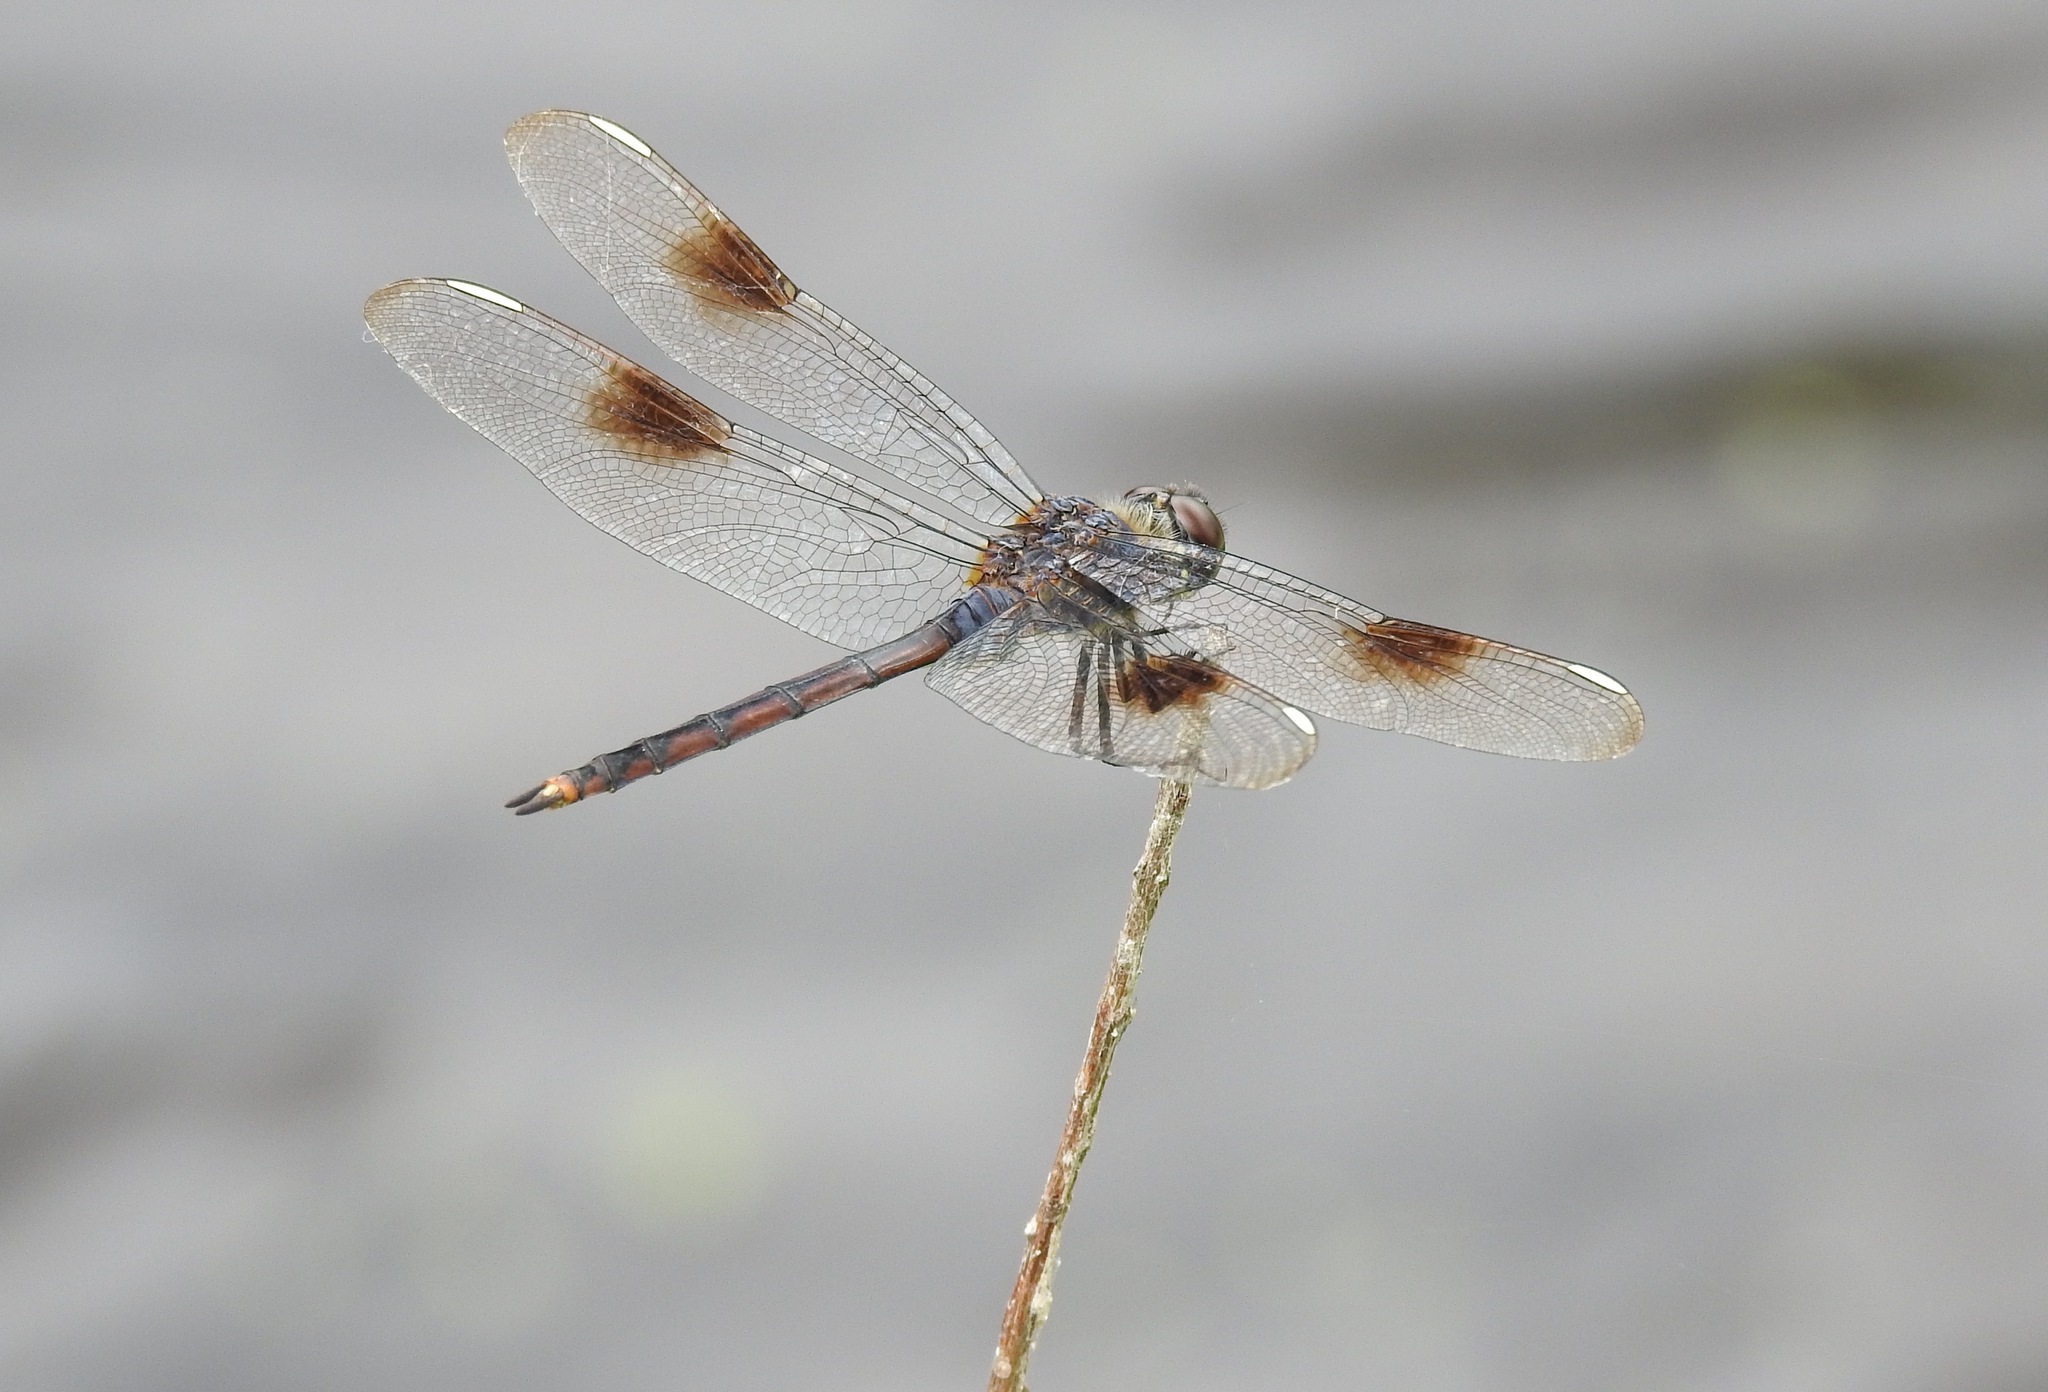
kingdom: Animalia
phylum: Arthropoda
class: Insecta
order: Odonata
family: Libellulidae
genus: Brachymesia
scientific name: Brachymesia gravida
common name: Four-spotted pennant
